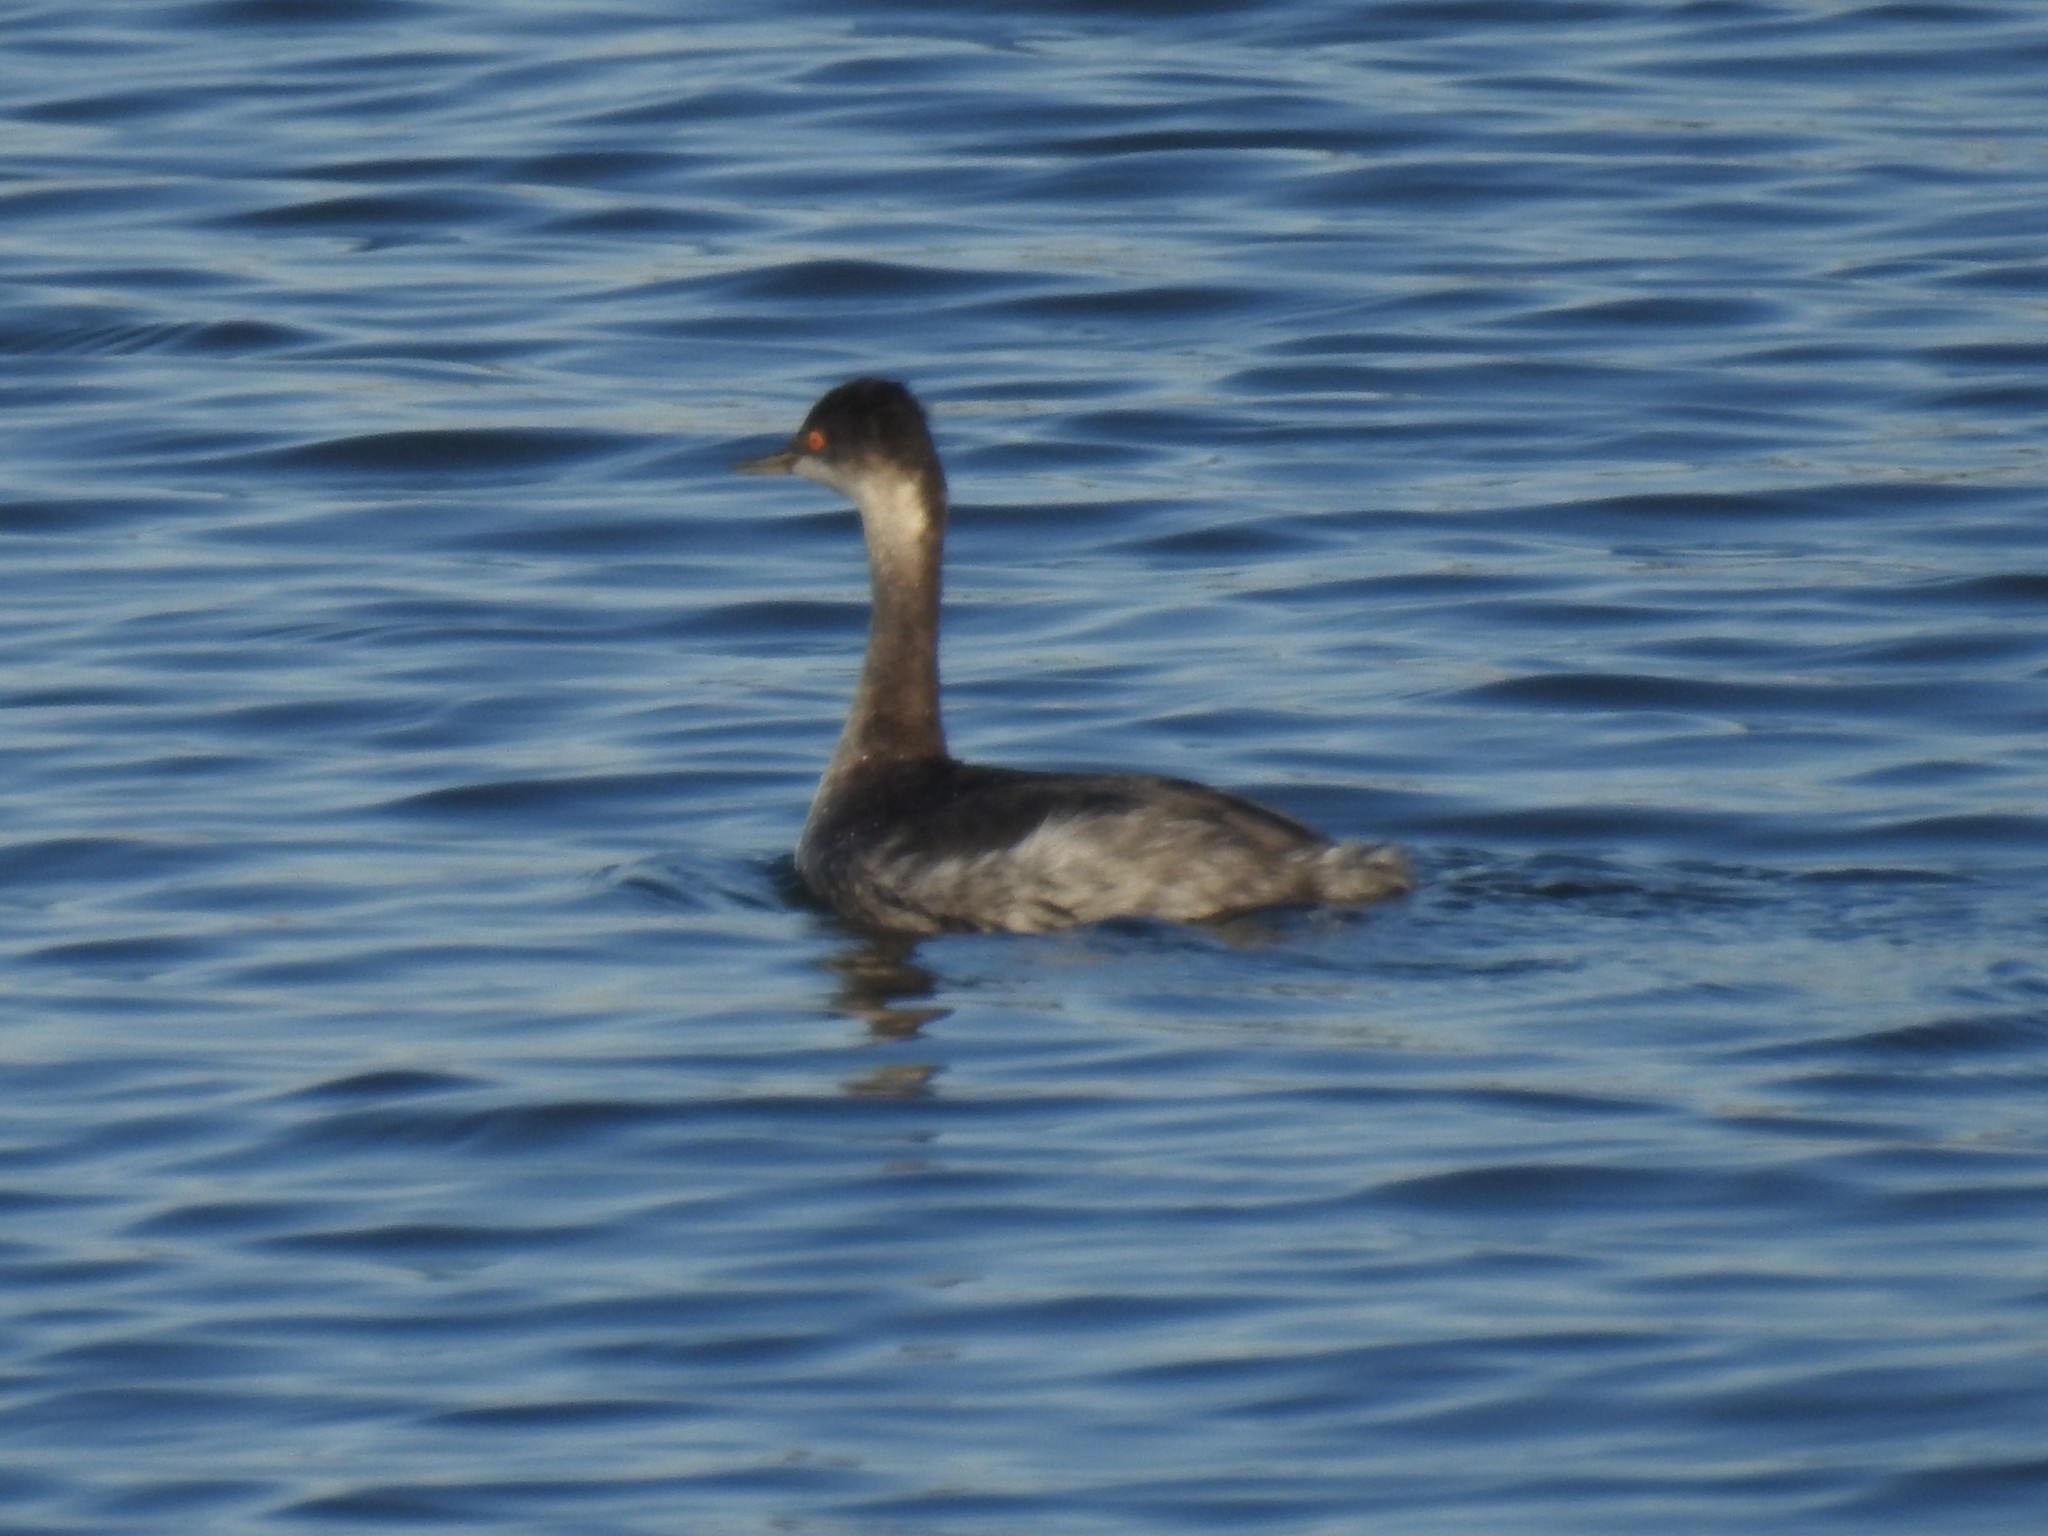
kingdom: Animalia
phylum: Chordata
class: Aves
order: Podicipediformes
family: Podicipedidae
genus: Podiceps
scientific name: Podiceps nigricollis
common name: Black-necked grebe
